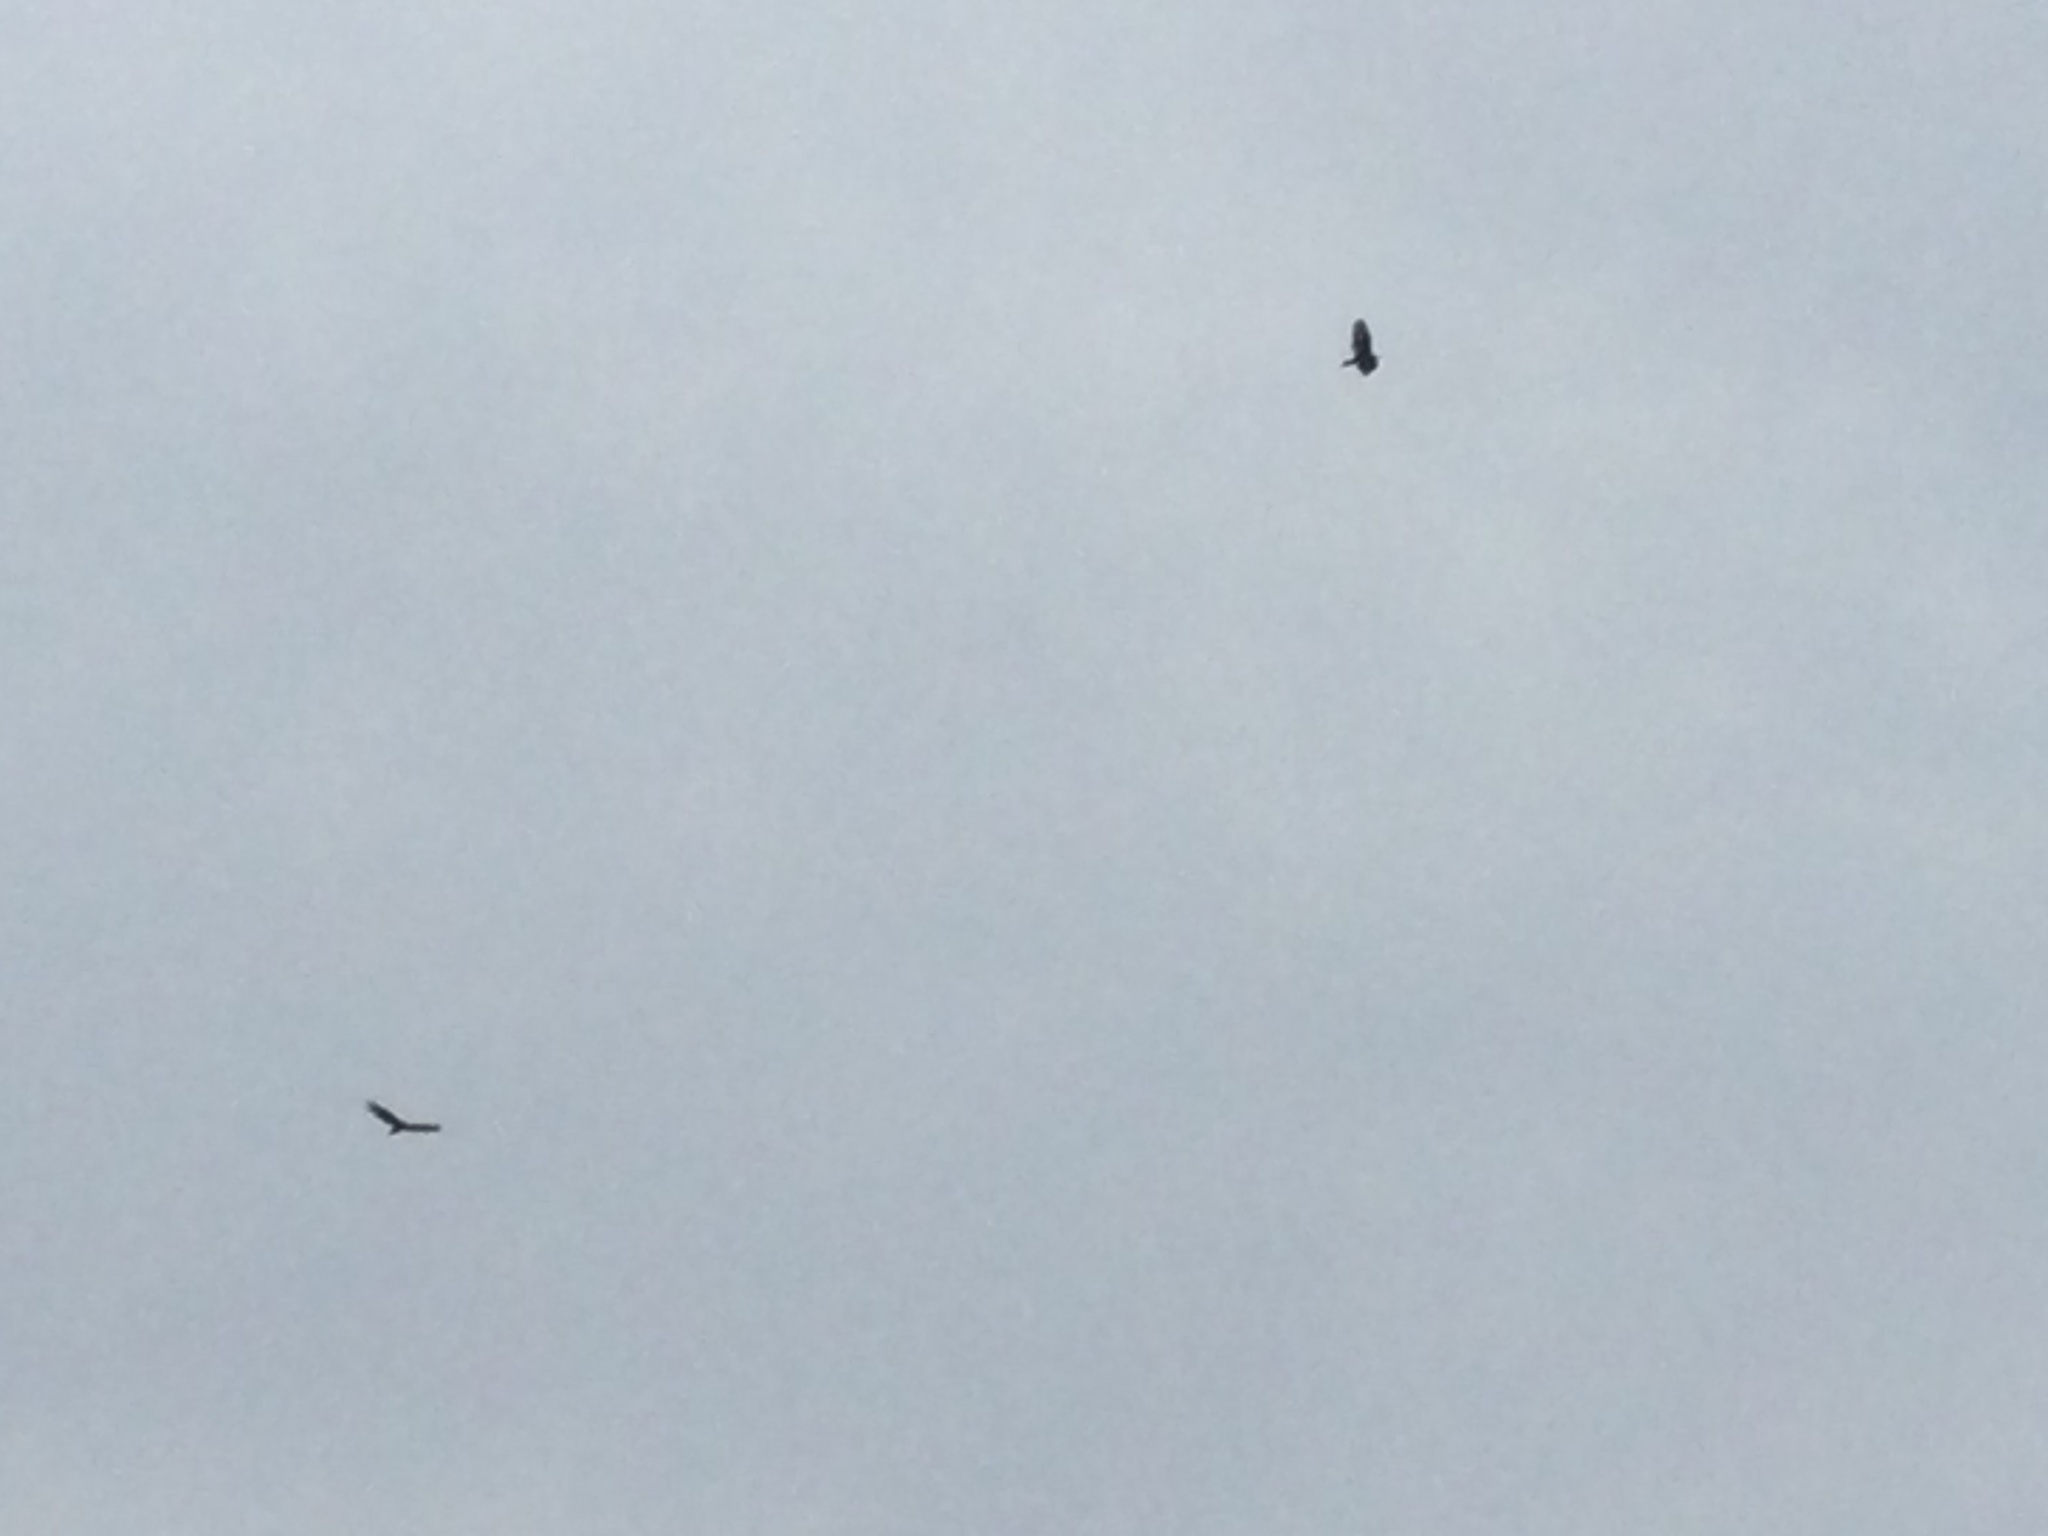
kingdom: Animalia
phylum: Chordata
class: Aves
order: Accipitriformes
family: Cathartidae
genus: Cathartes
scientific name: Cathartes aura
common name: Turkey vulture
